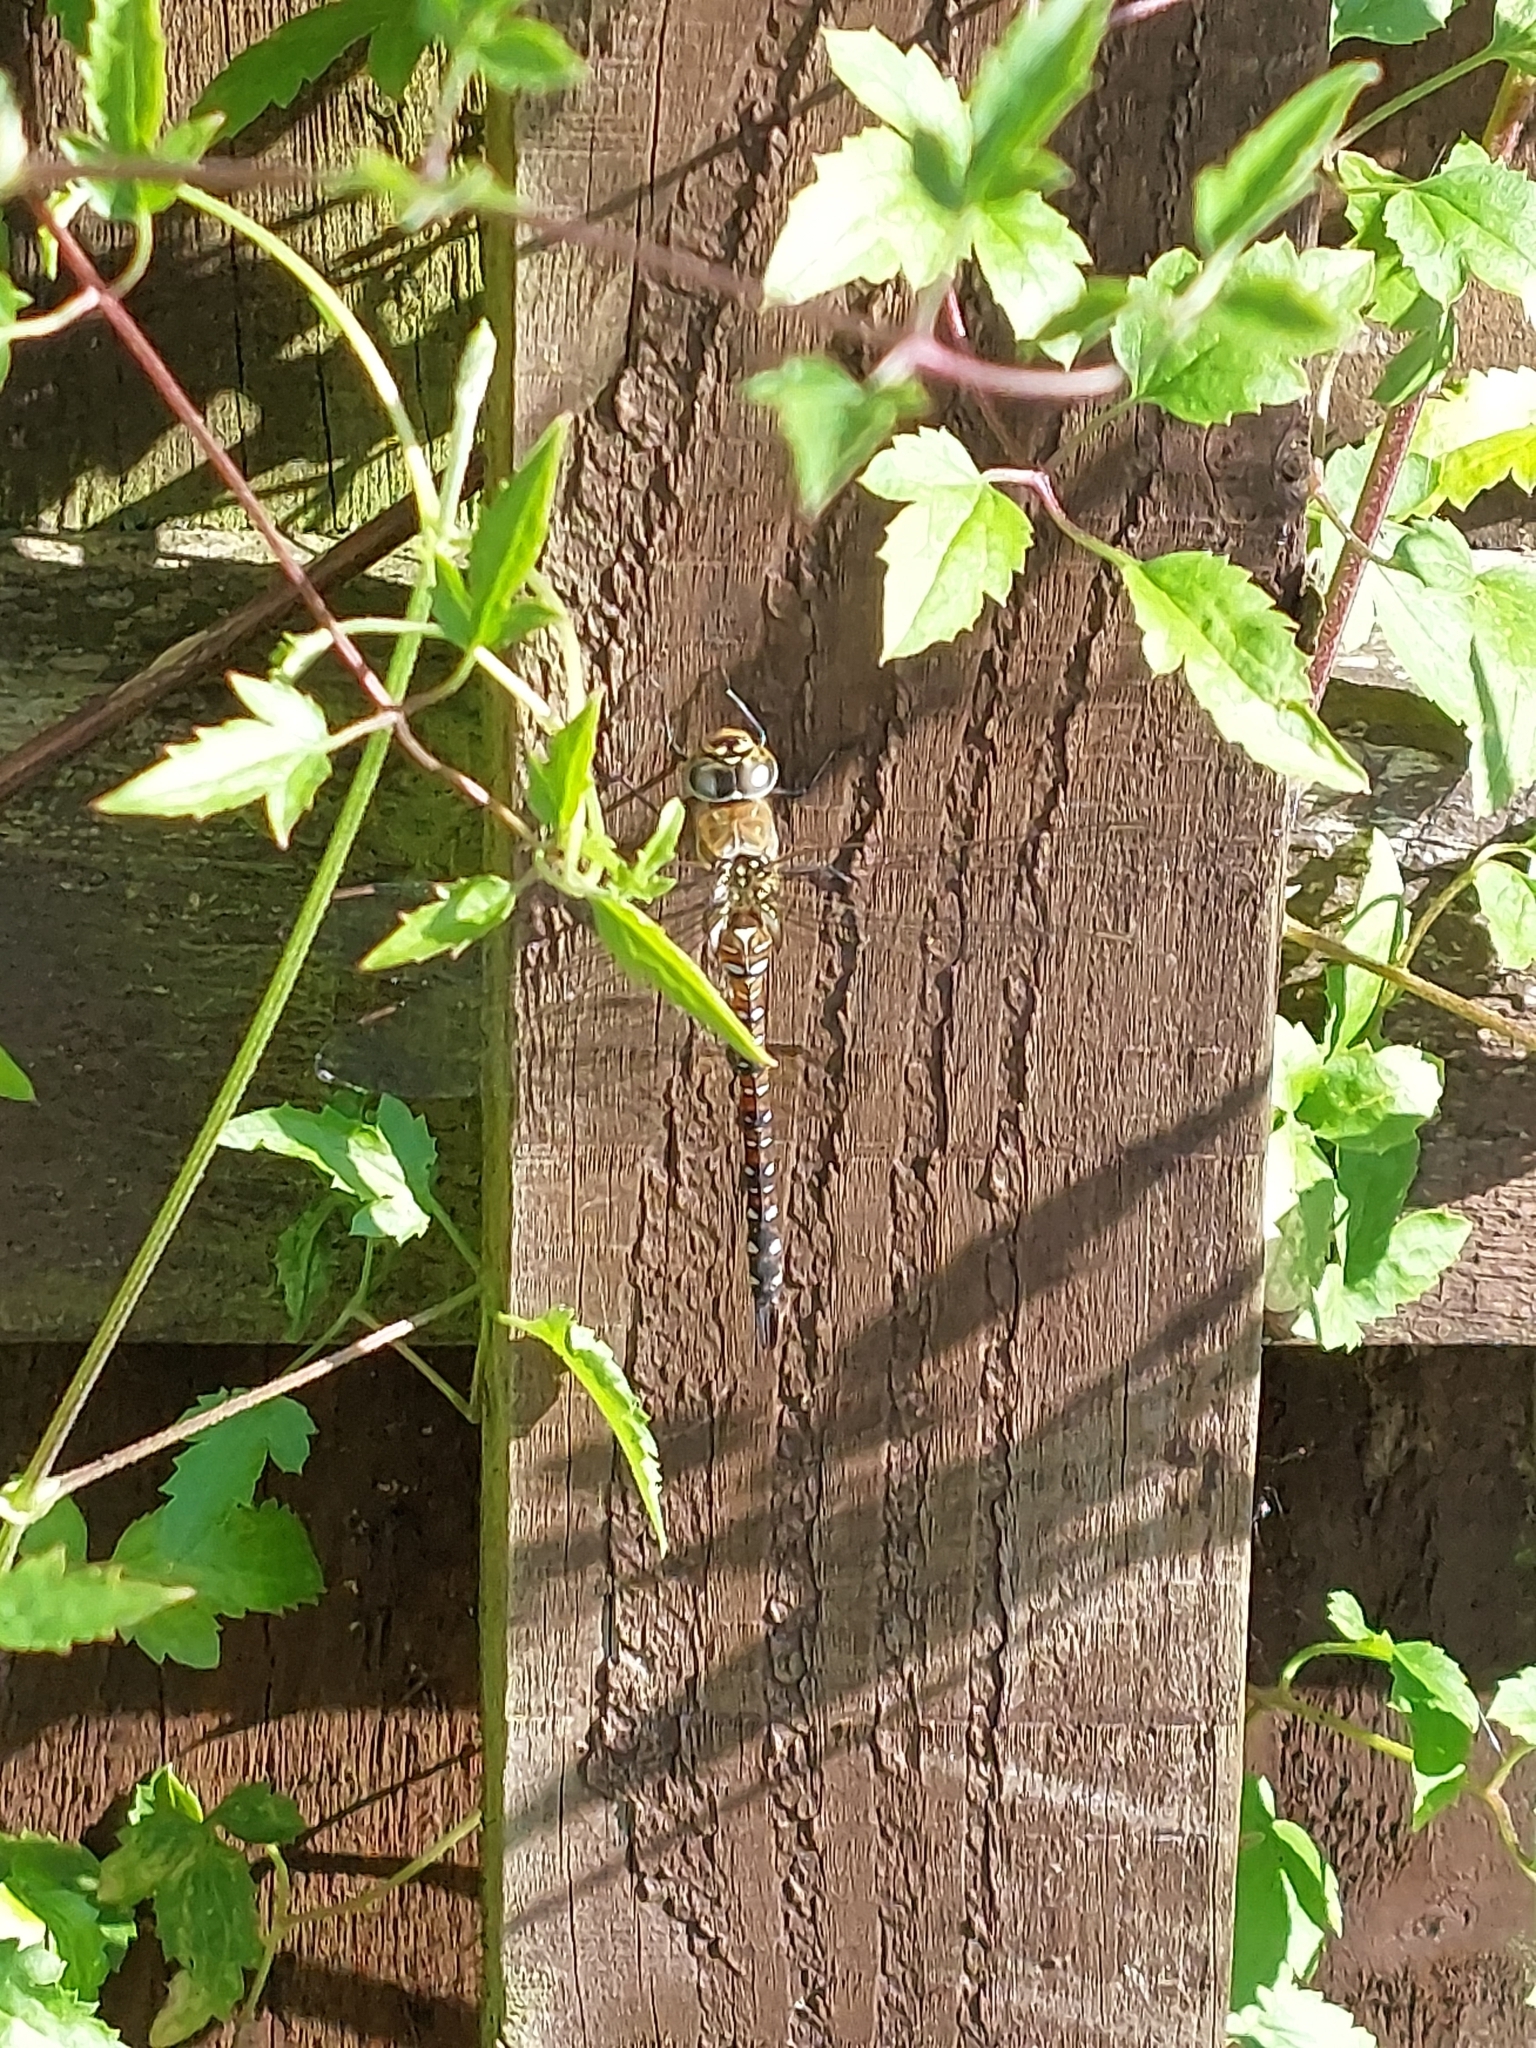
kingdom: Animalia
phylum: Arthropoda
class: Insecta
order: Odonata
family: Aeshnidae
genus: Aeshna
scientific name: Aeshna mixta
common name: Migrant hawker
